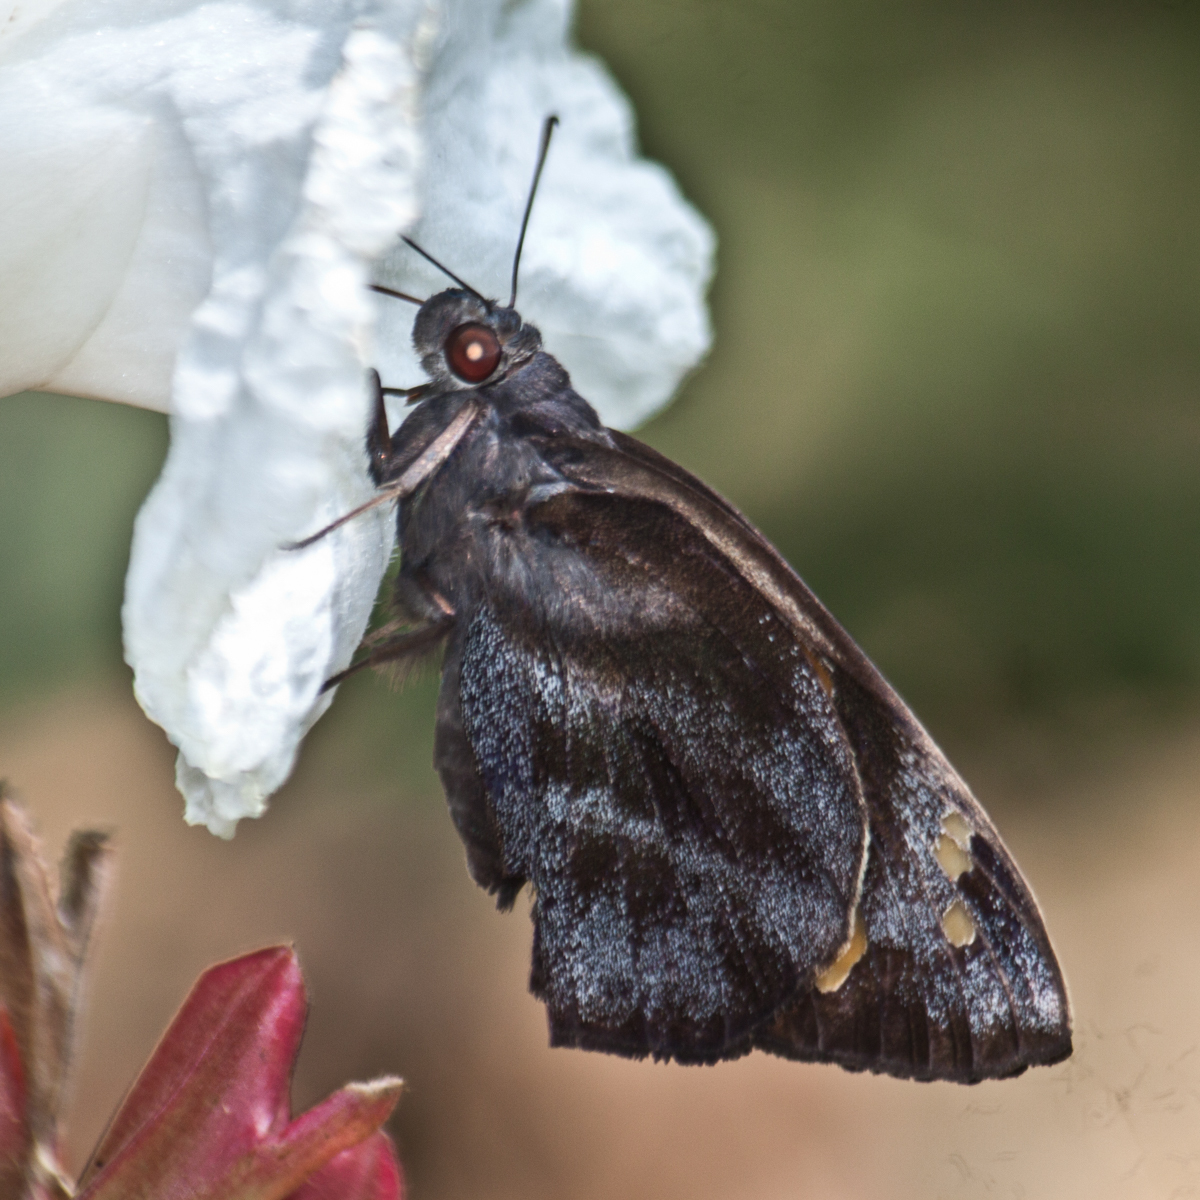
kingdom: Animalia
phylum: Arthropoda
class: Insecta
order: Lepidoptera
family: Hesperiidae
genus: Gangara
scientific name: Gangara thyrsis
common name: Giant redeye
